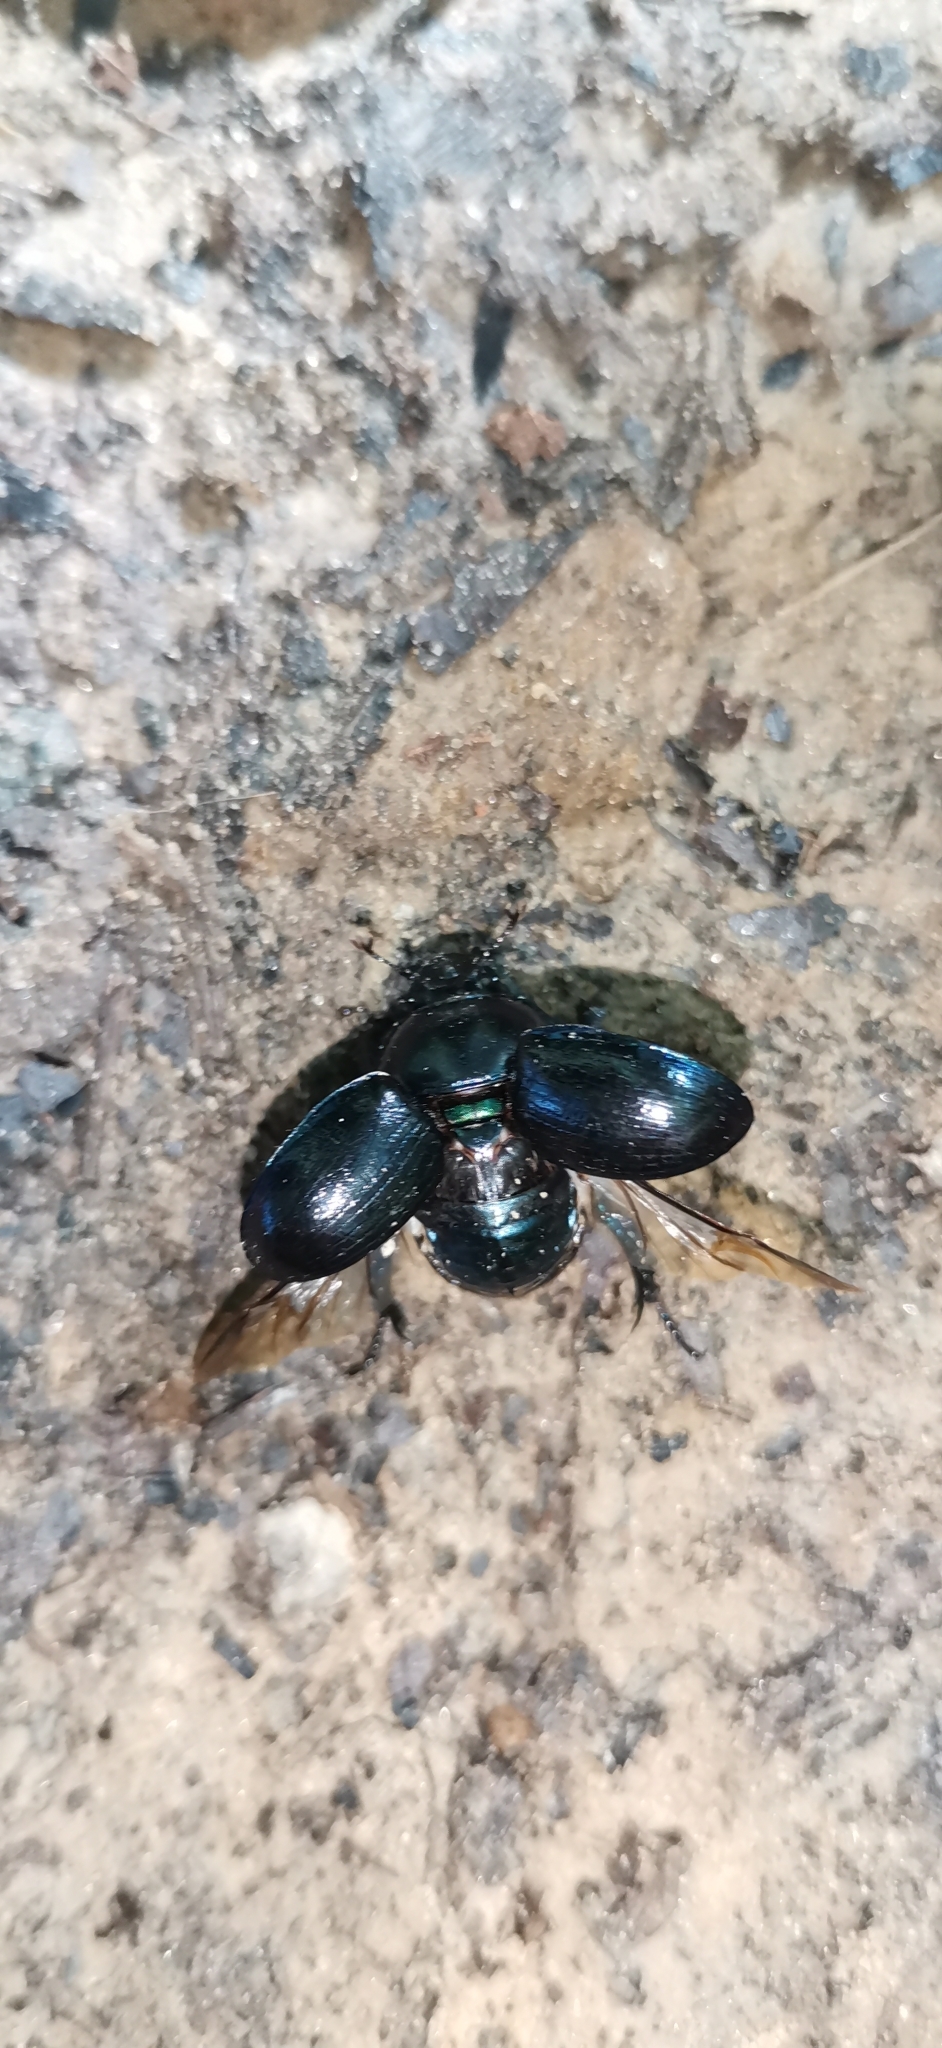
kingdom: Animalia
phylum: Arthropoda
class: Insecta
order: Coleoptera
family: Geotrupidae
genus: Anoplotrupes
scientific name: Anoplotrupes stercorosus
